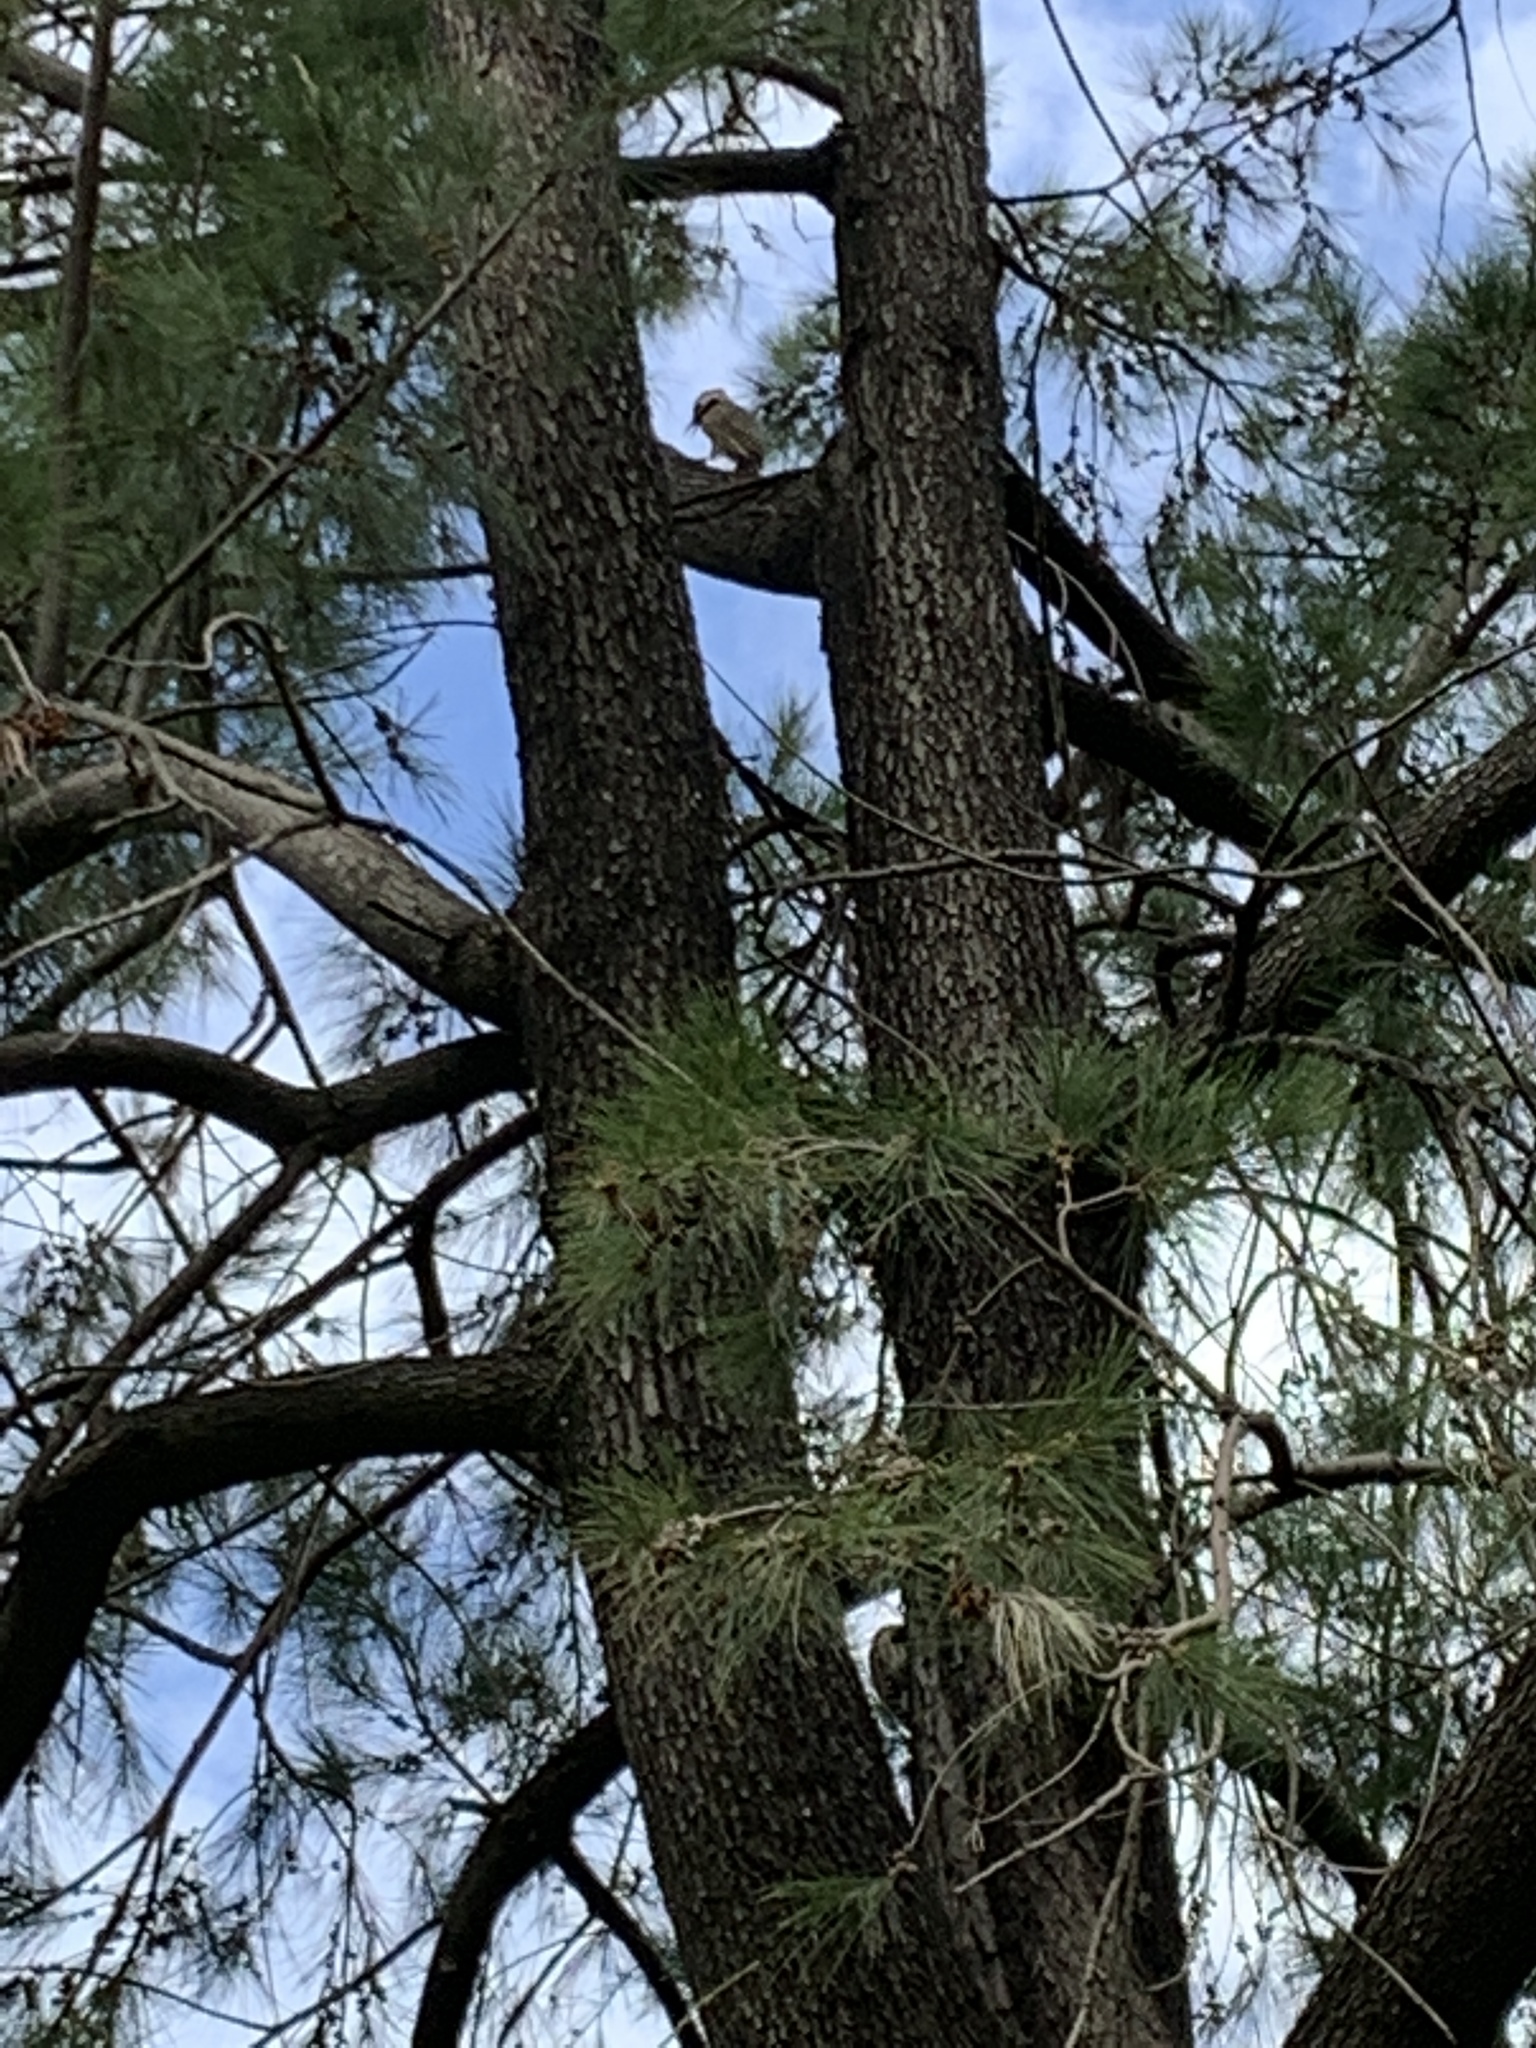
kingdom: Animalia
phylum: Chordata
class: Aves
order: Piciformes
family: Picidae
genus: Colaptes
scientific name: Colaptes melanochloros
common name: Green-barred woodpecker
